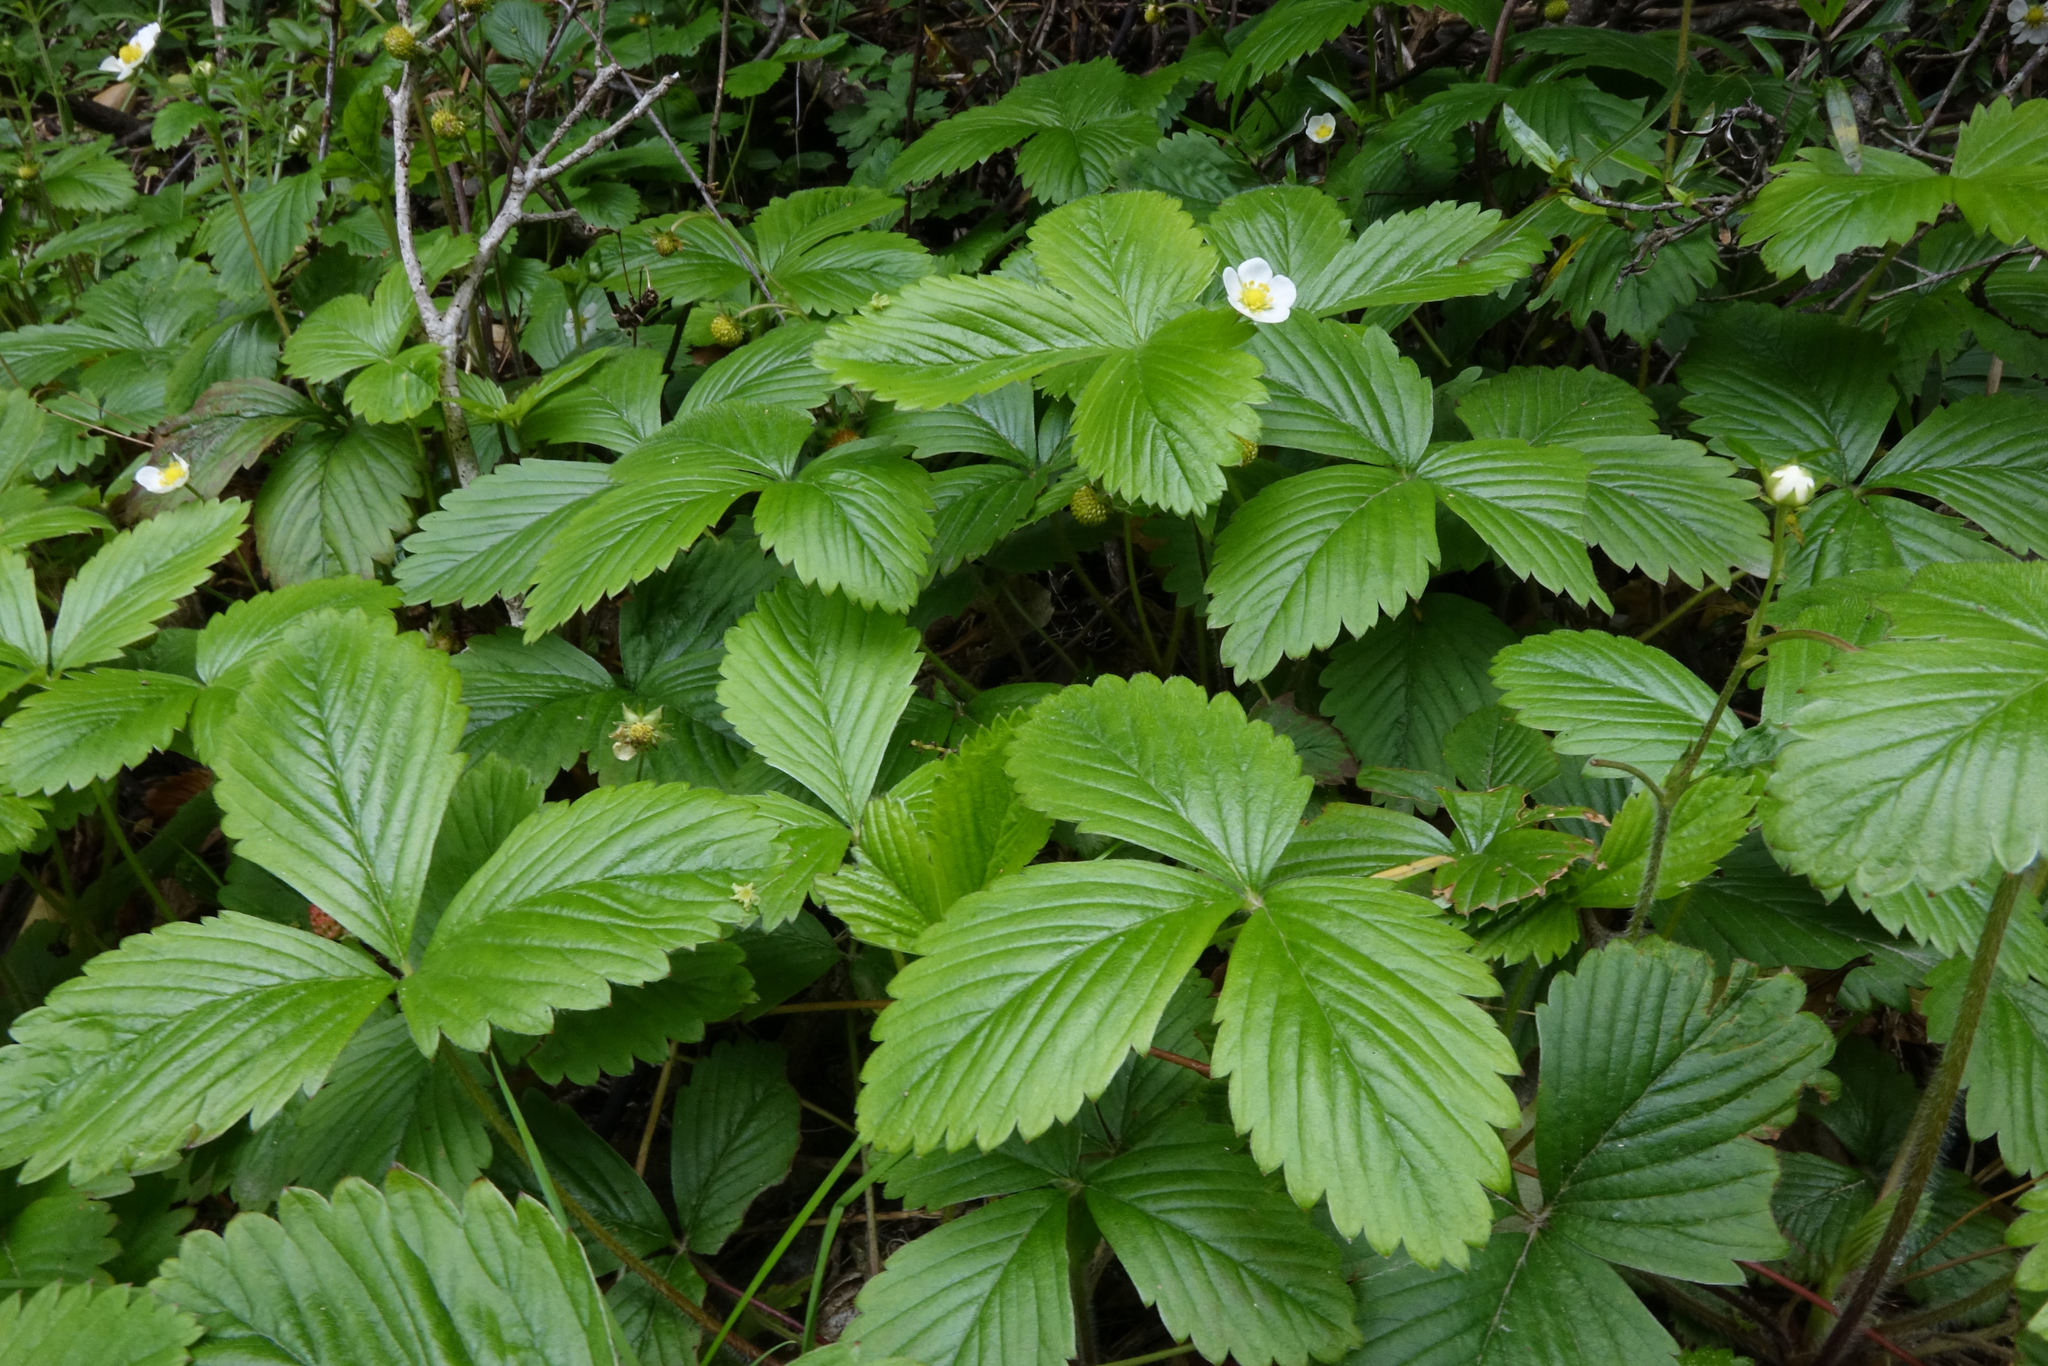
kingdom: Plantae
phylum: Tracheophyta
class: Magnoliopsida
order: Rosales
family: Rosaceae
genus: Fragaria
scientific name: Fragaria vesca
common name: Wild strawberry
